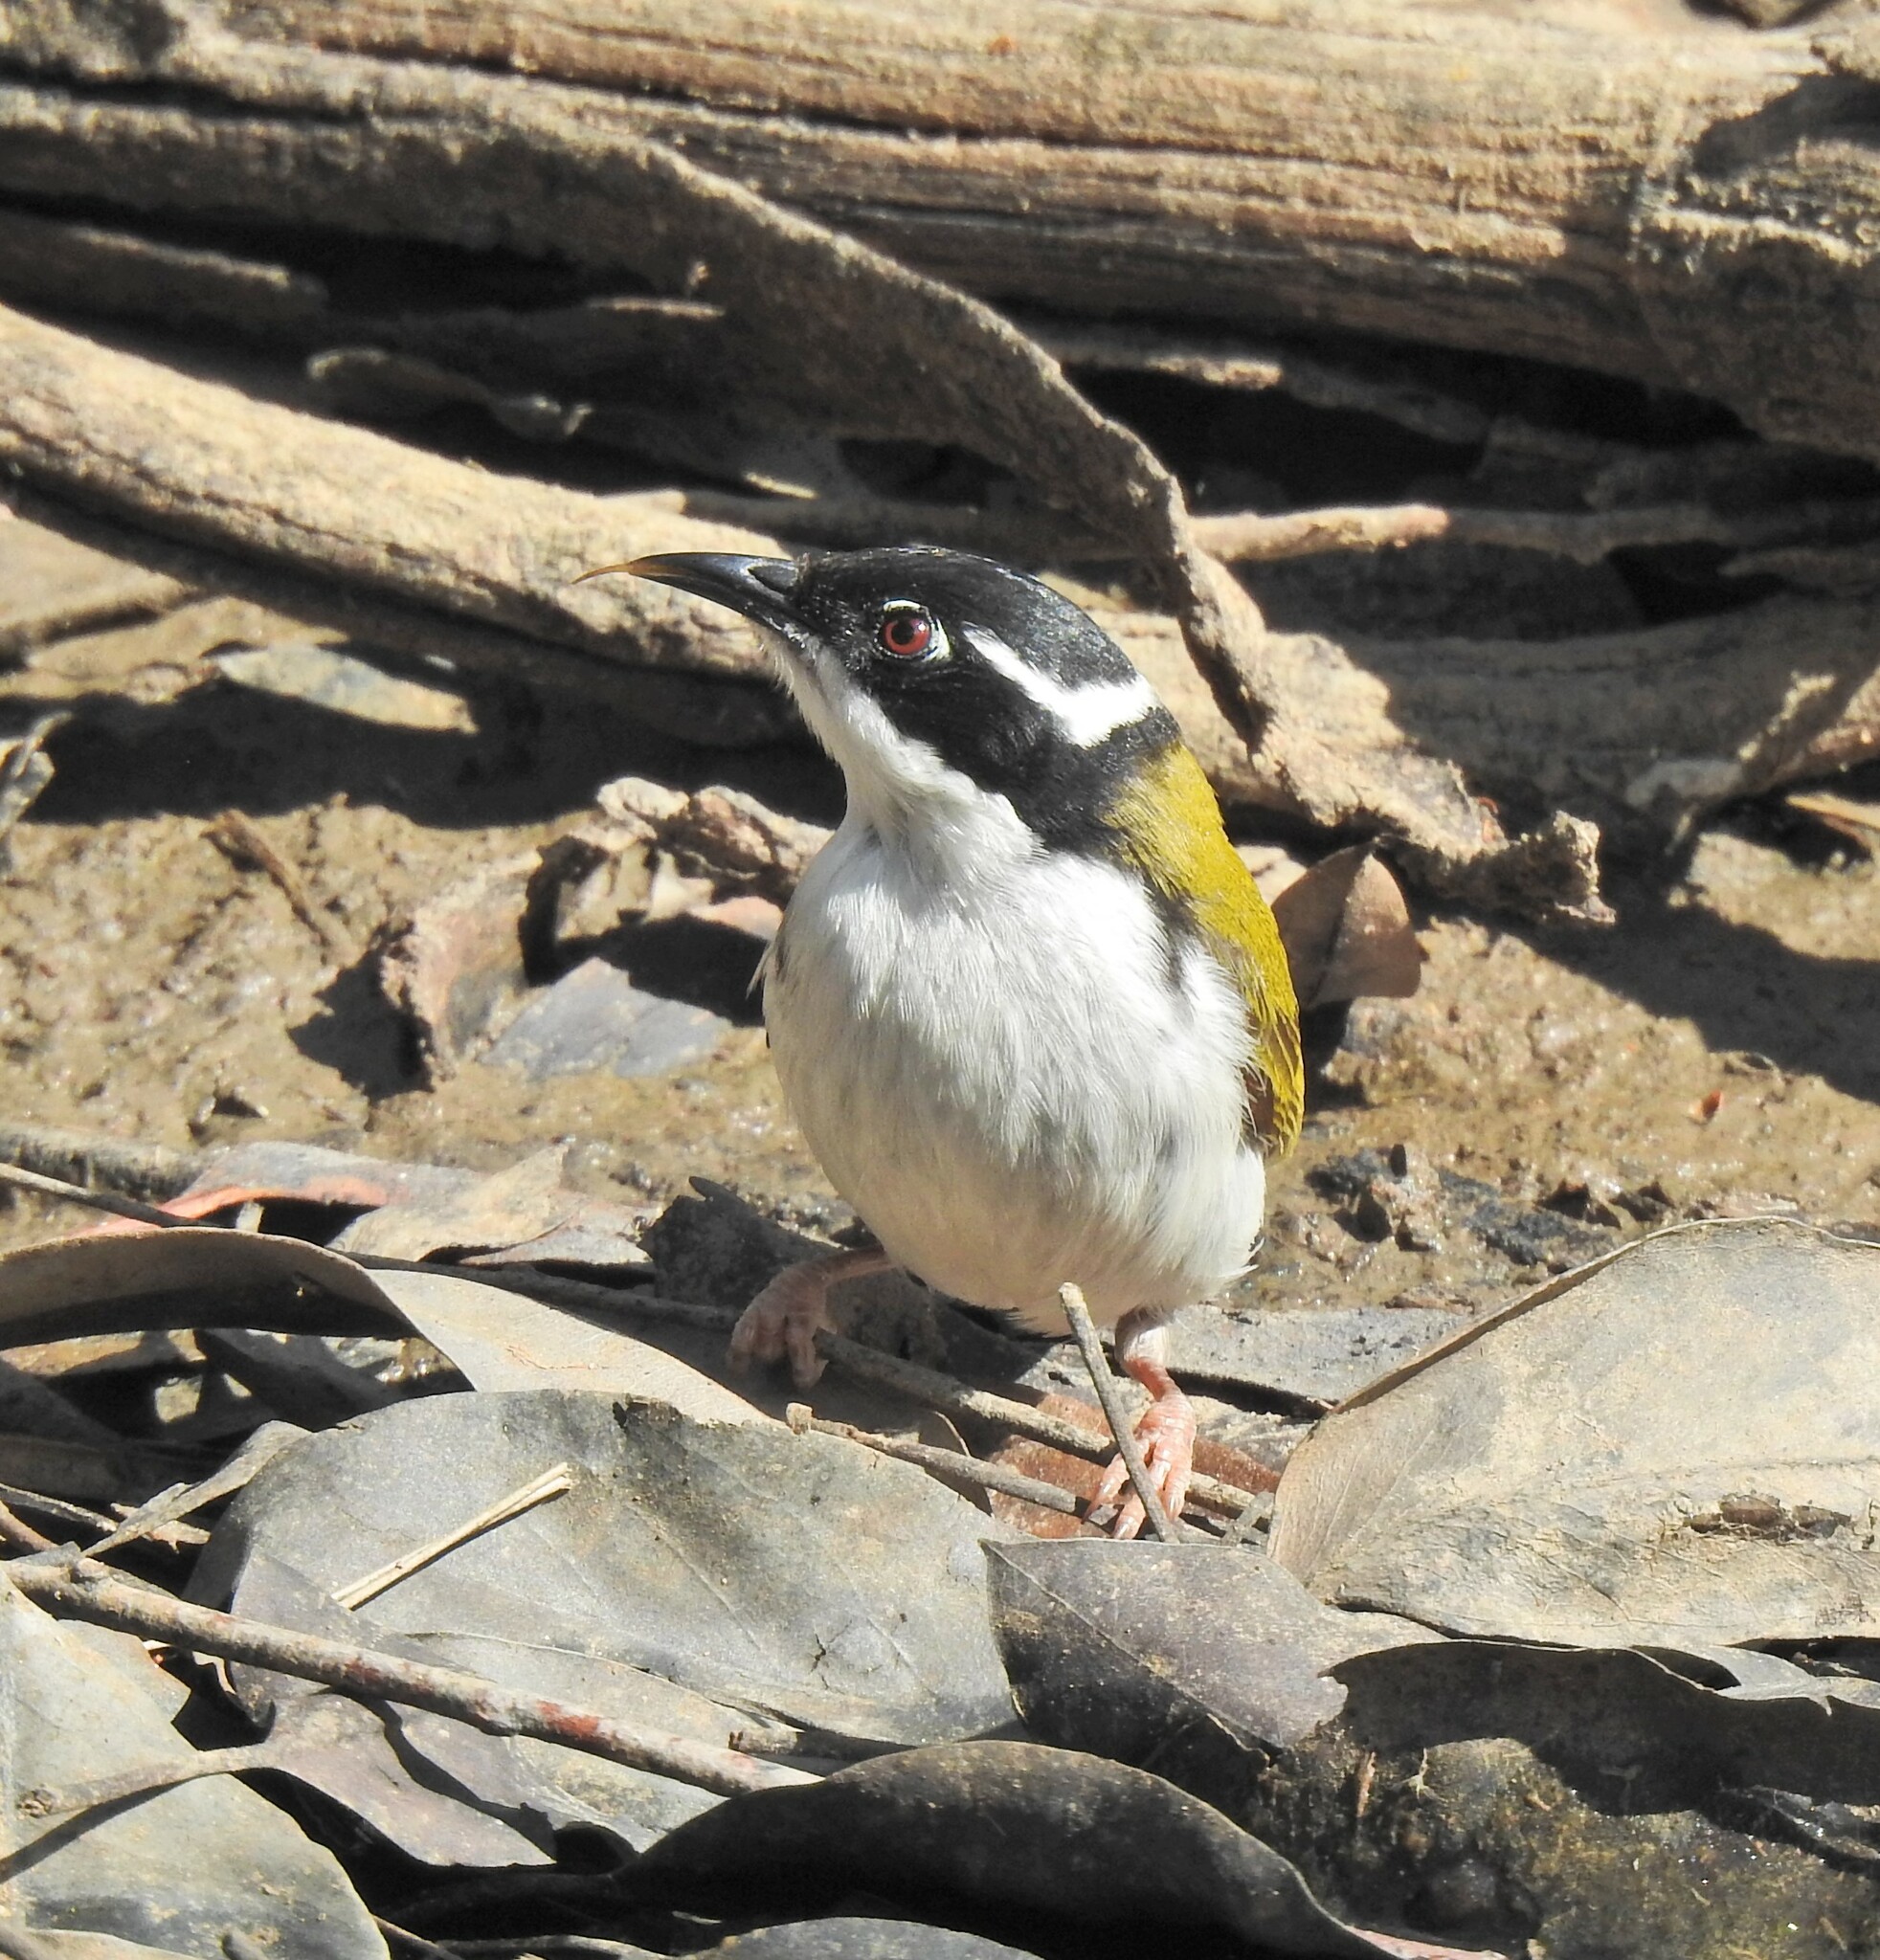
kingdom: Animalia
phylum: Chordata
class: Aves
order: Passeriformes
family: Meliphagidae
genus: Melithreptus
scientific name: Melithreptus albogularis
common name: White-throated honeyeater
